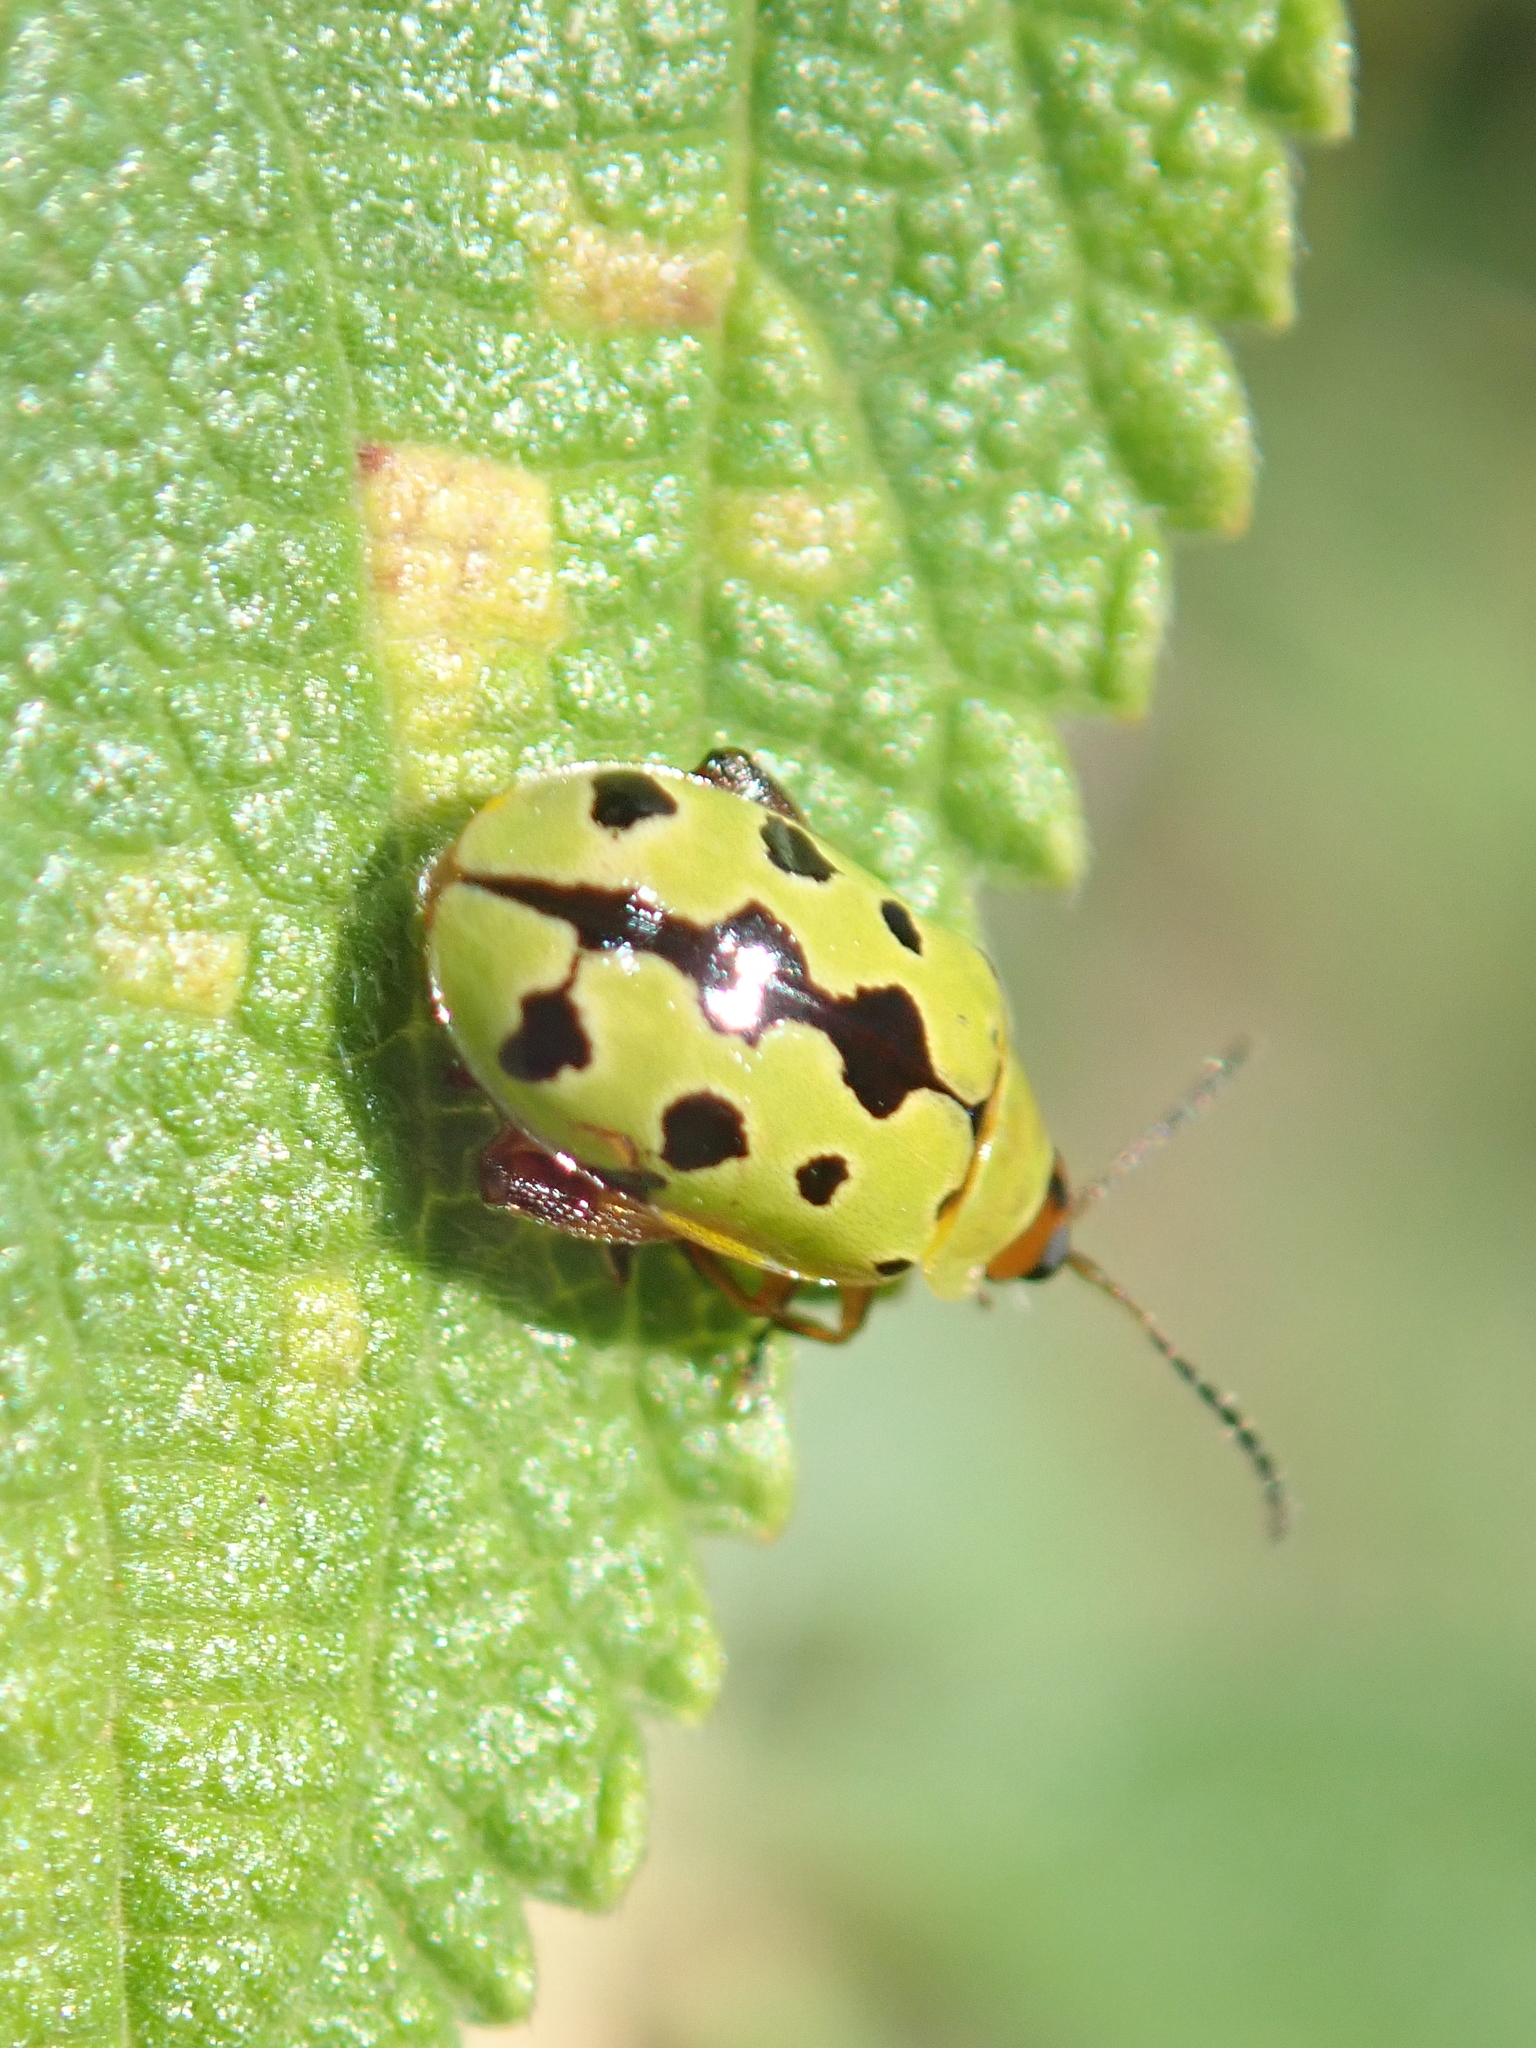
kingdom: Animalia
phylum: Arthropoda
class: Insecta
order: Coleoptera
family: Chrysomelidae
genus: Alagoasa
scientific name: Alagoasa
